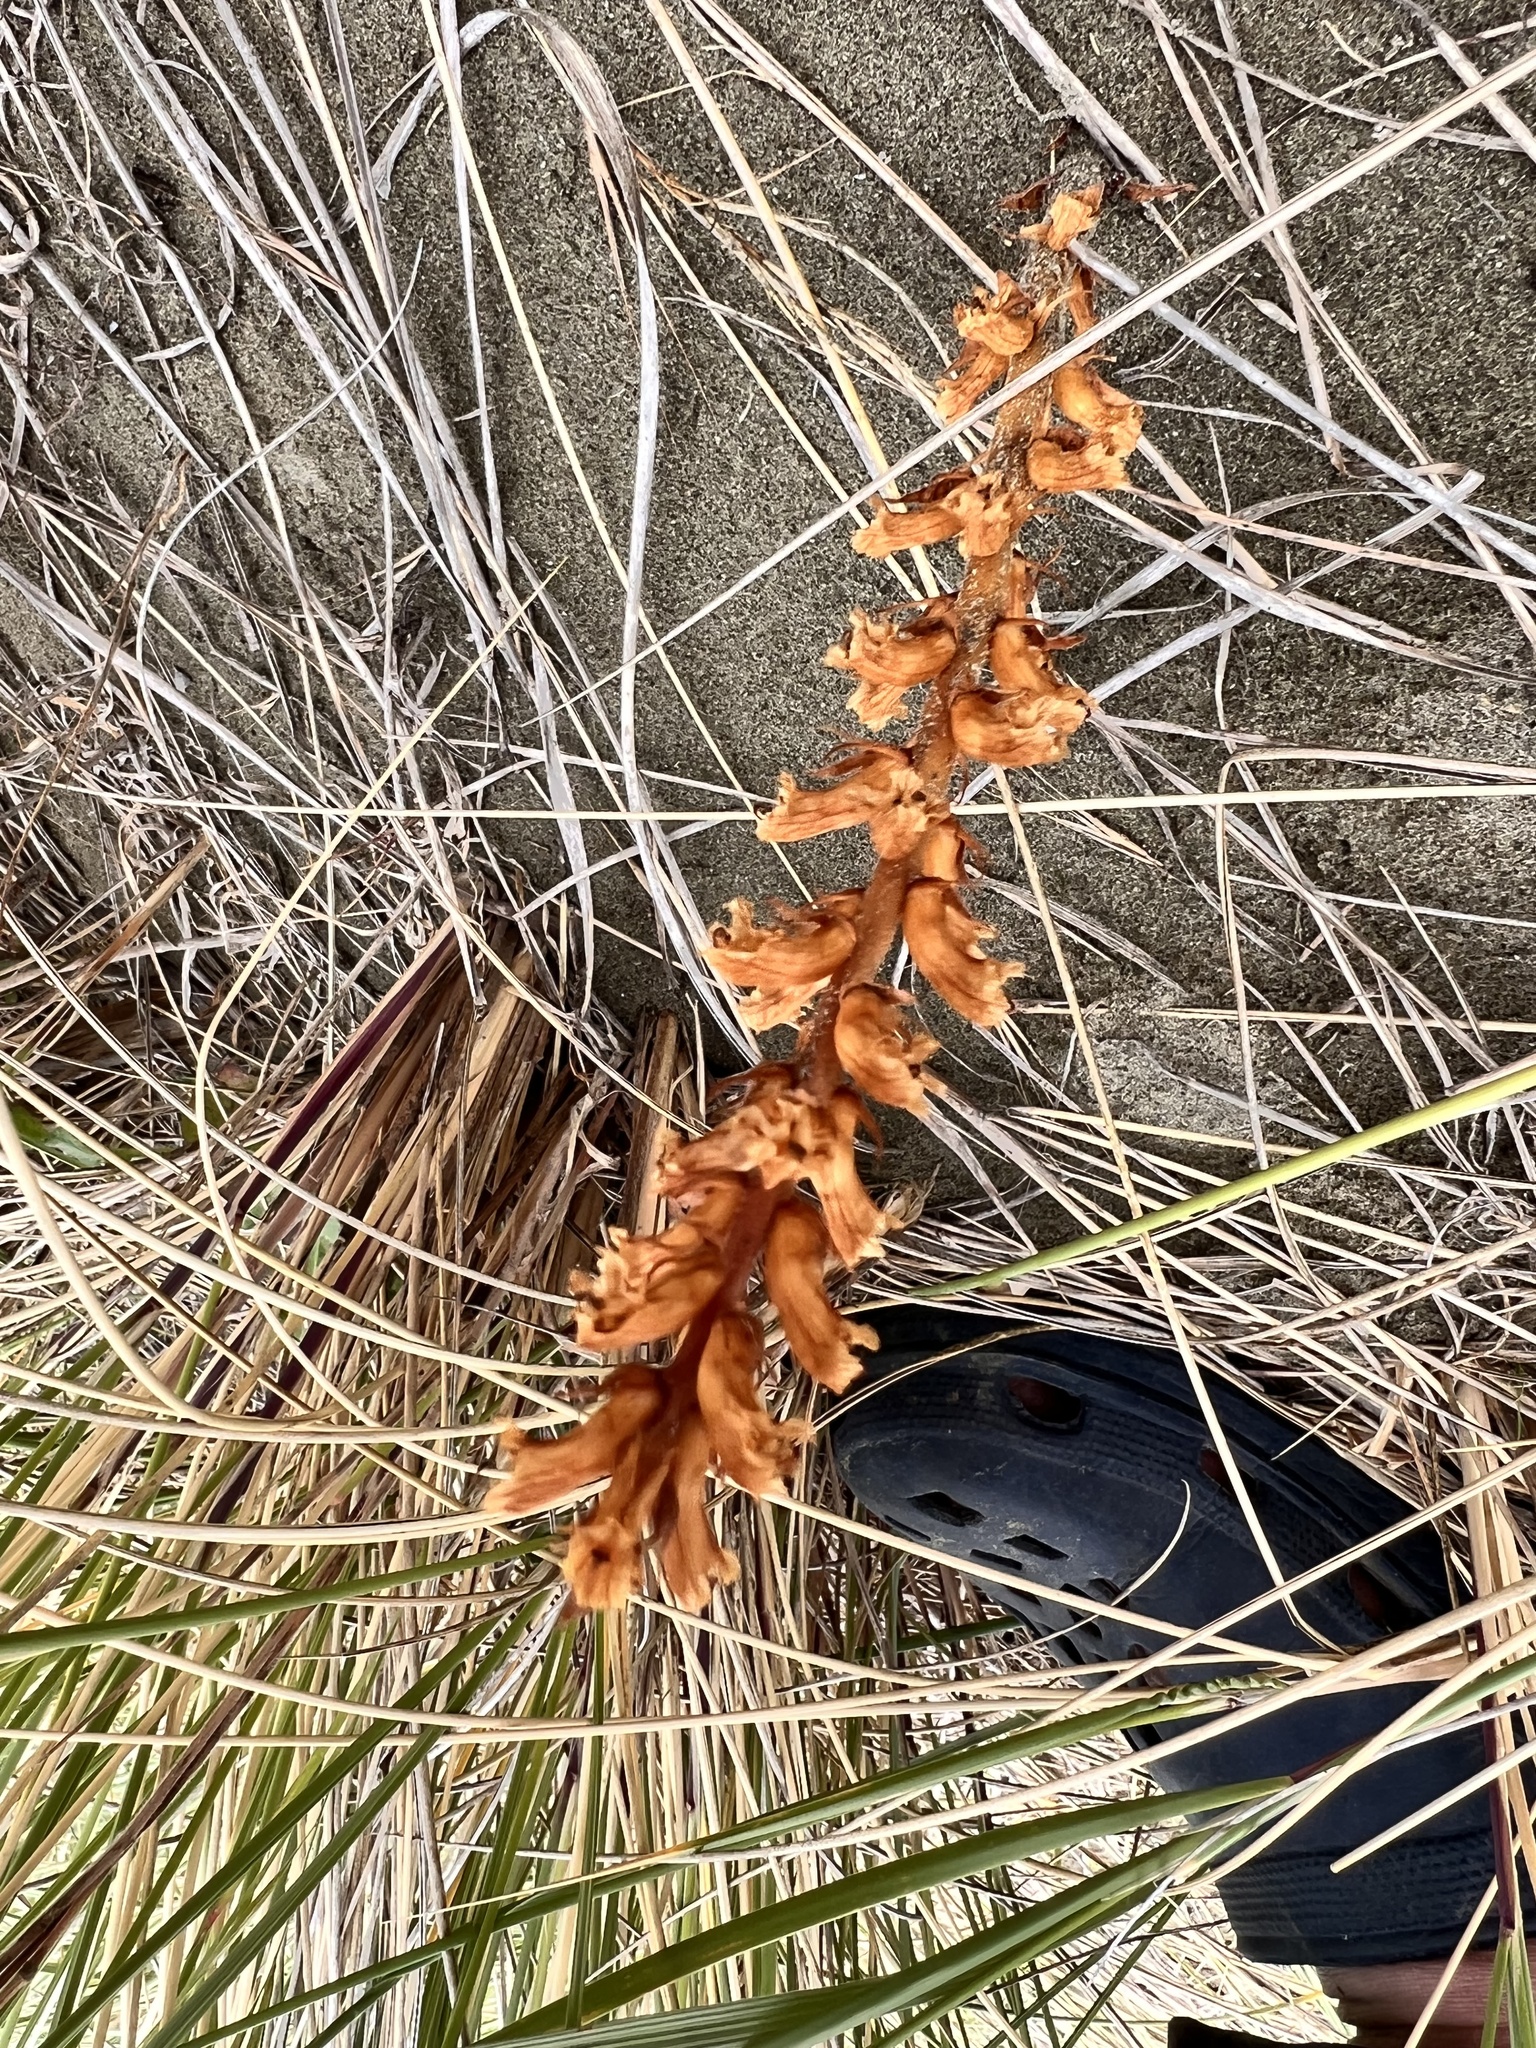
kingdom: Plantae
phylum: Tracheophyta
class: Magnoliopsida
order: Lamiales
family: Orobanchaceae
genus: Orobanche
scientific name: Orobanche minor
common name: Common broomrape
